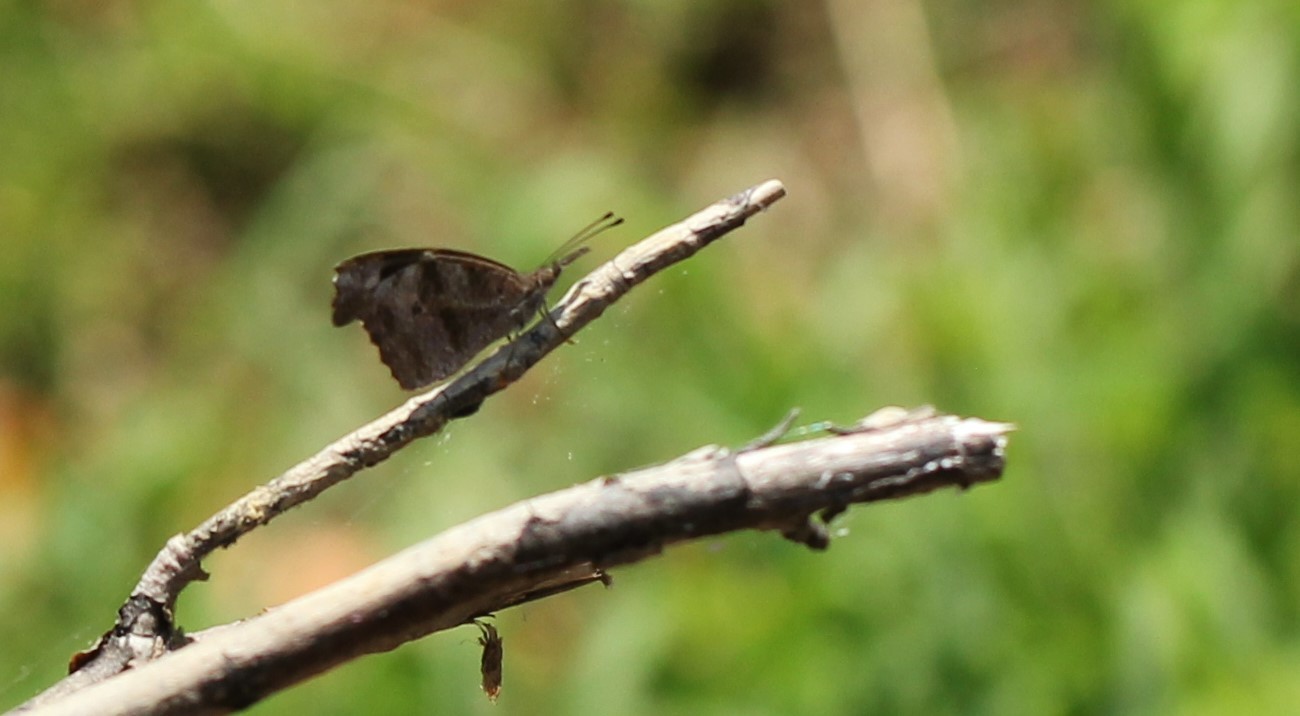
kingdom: Animalia
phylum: Arthropoda
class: Insecta
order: Lepidoptera
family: Nymphalidae
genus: Libytheana
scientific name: Libytheana carinenta
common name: American snout
